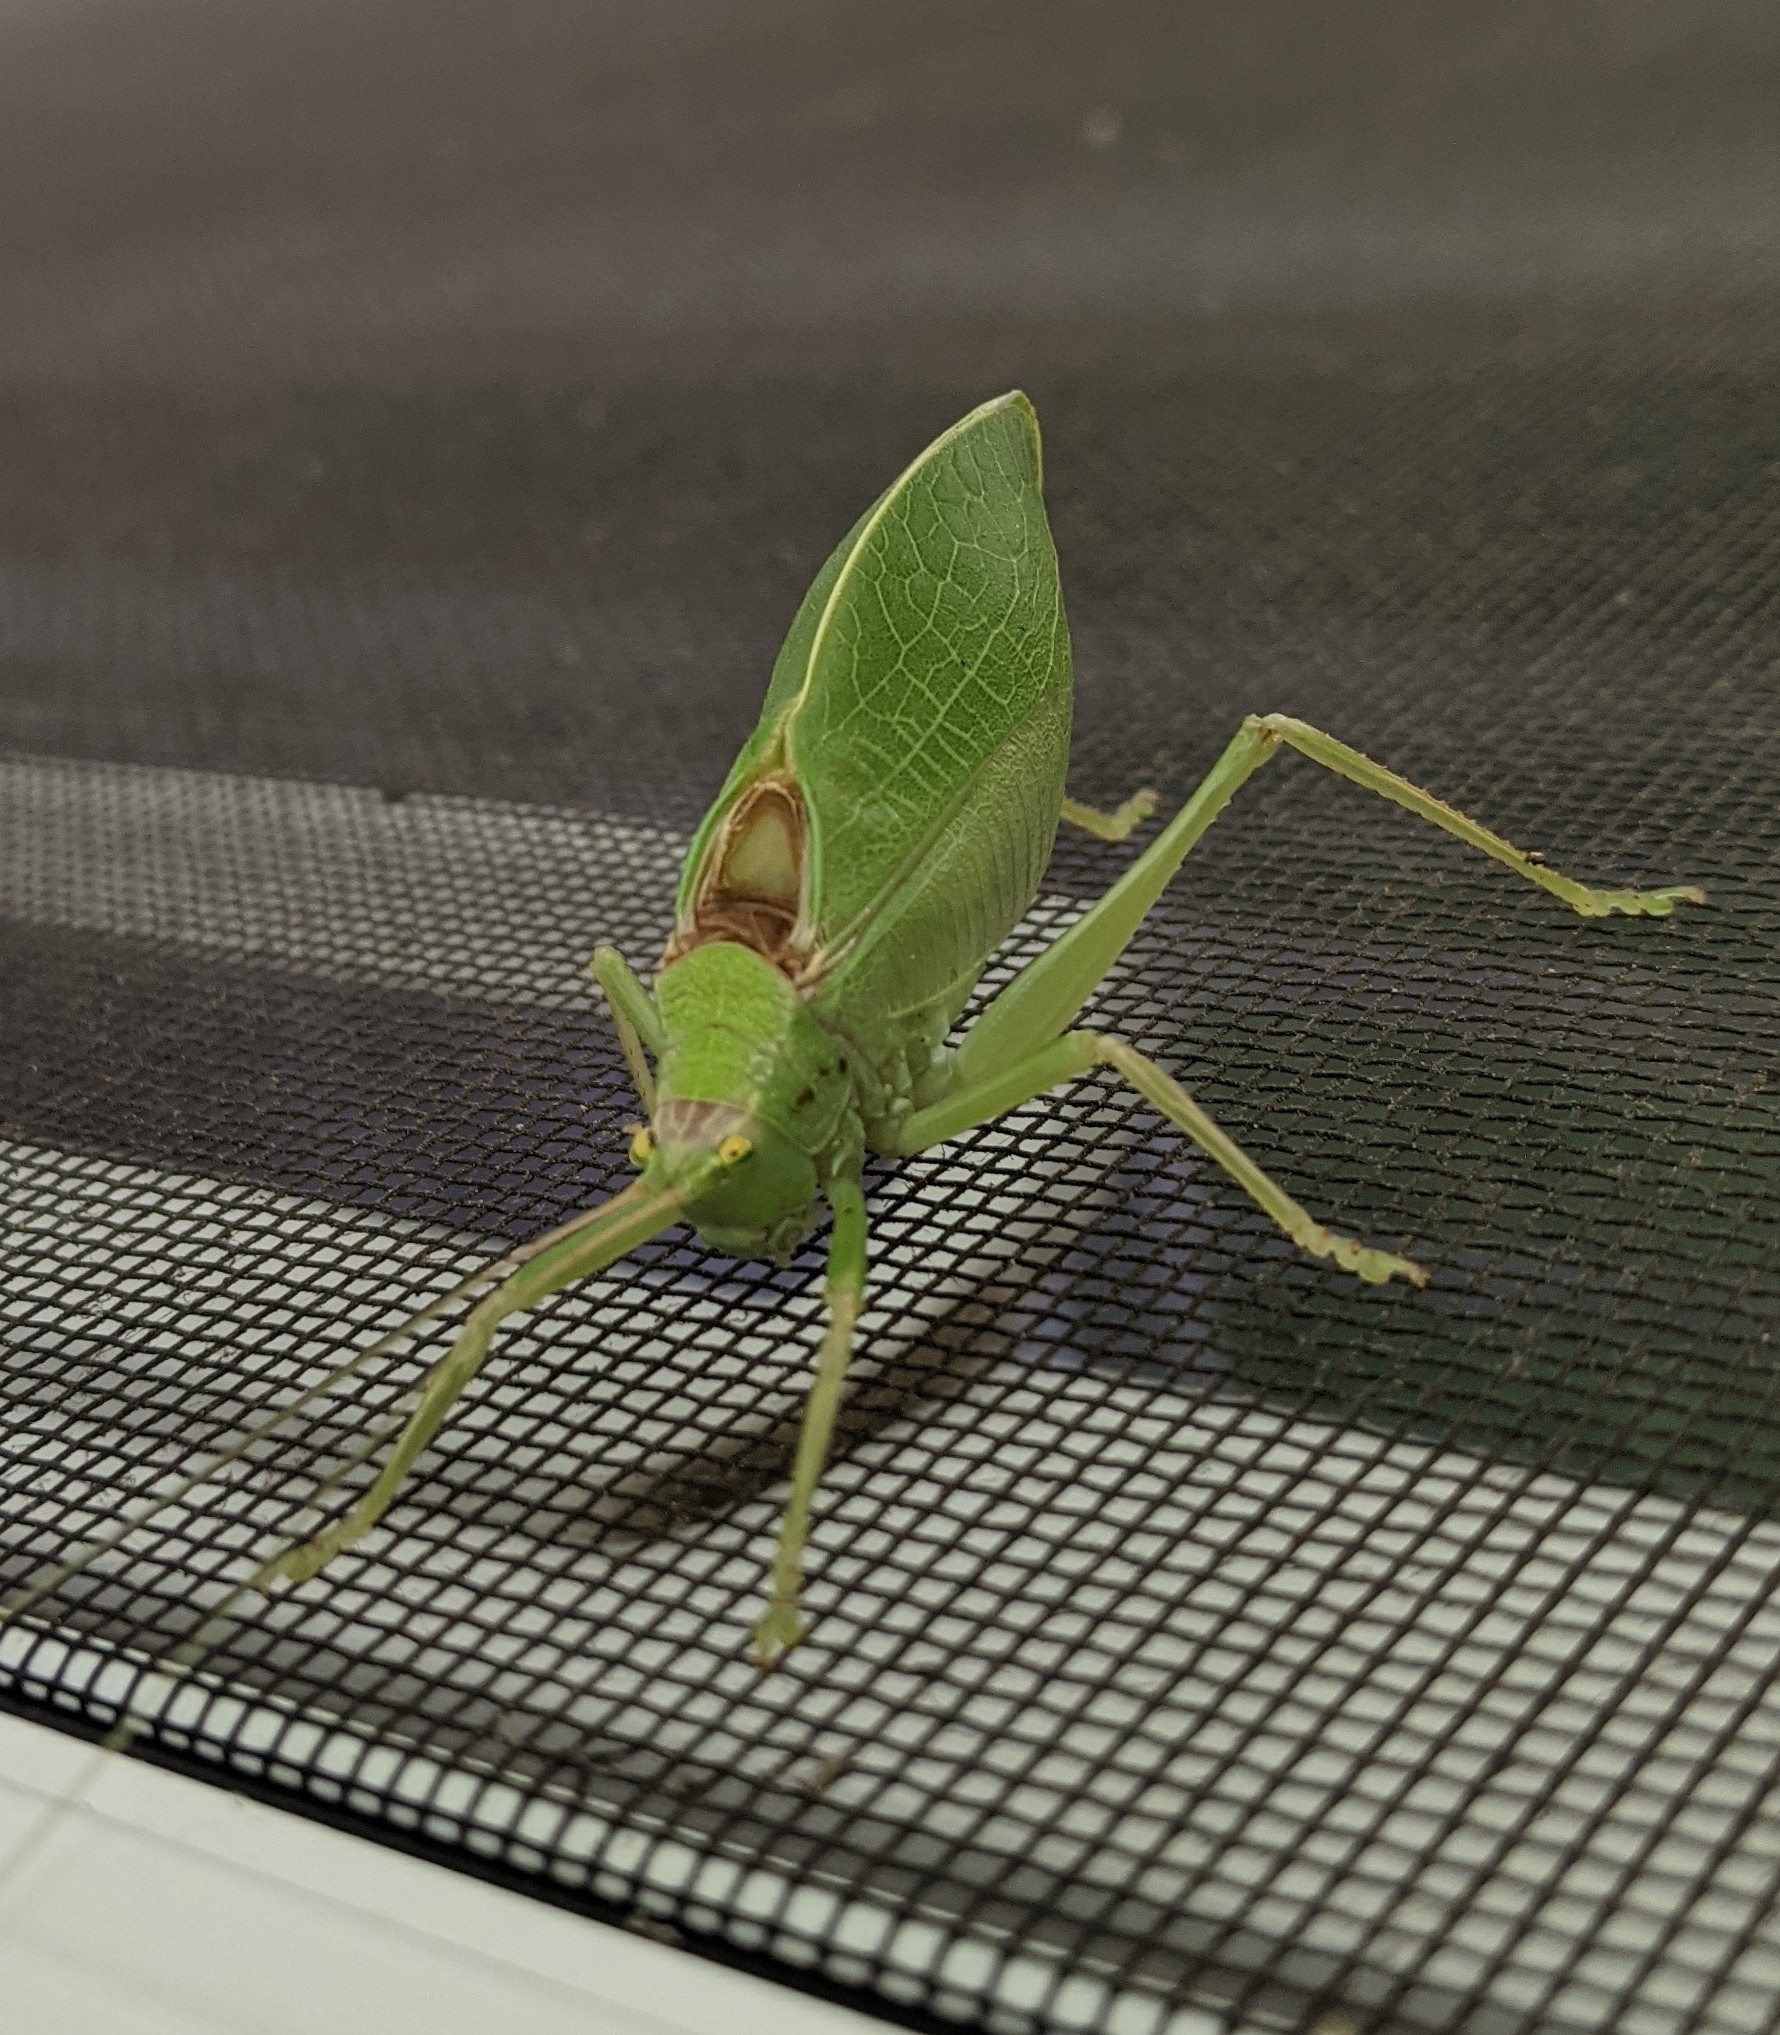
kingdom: Animalia
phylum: Arthropoda
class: Insecta
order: Orthoptera
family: Tettigoniidae
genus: Pterophylla
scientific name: Pterophylla camellifolia
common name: Common true katydid
